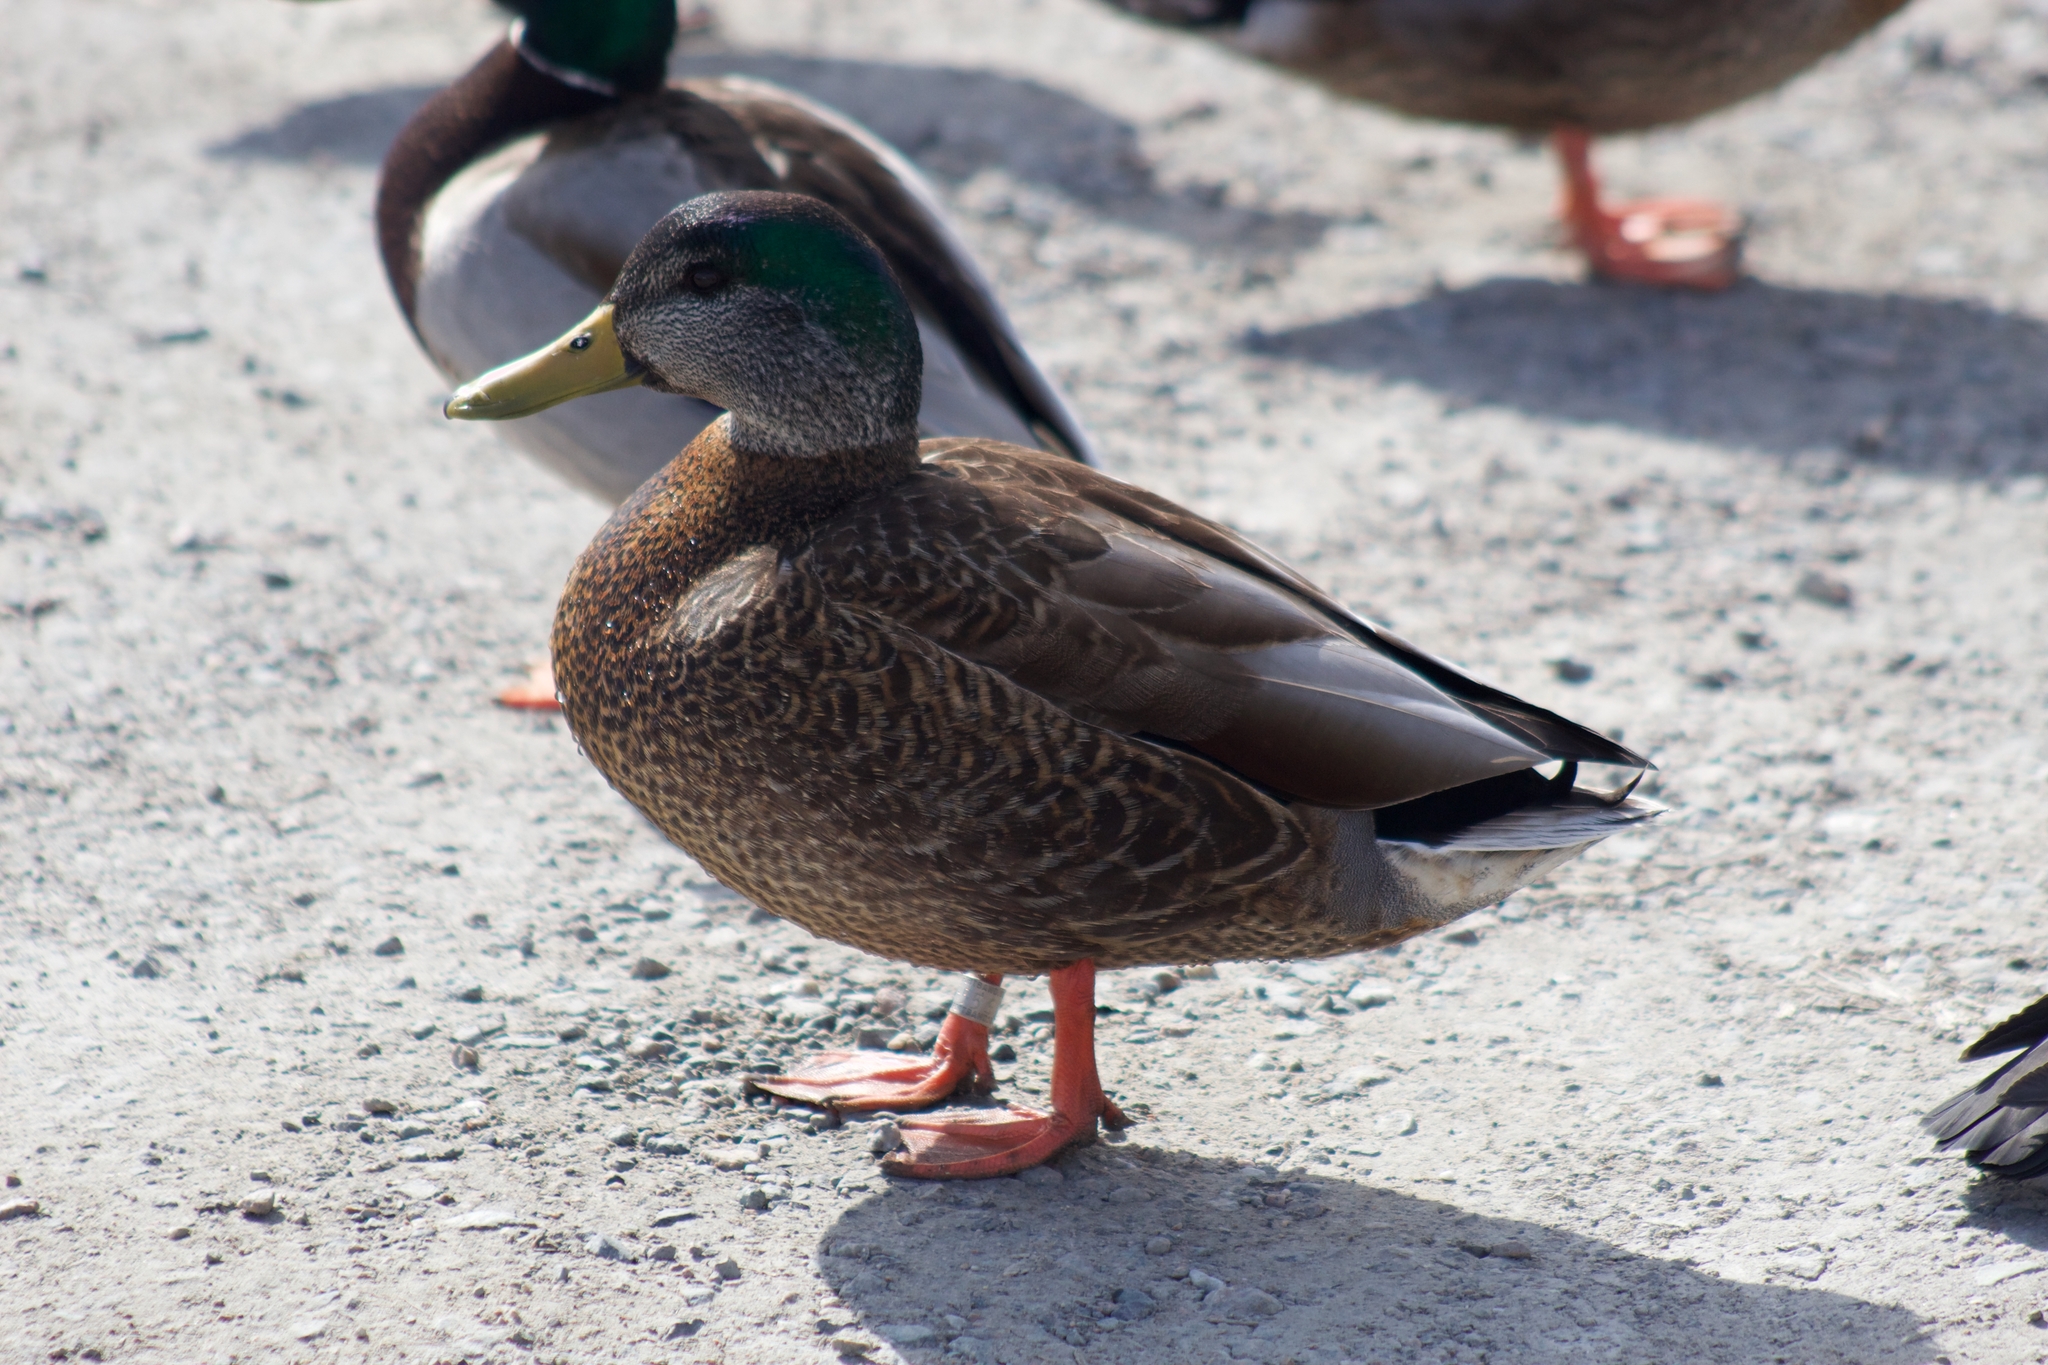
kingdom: Animalia
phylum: Chordata
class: Aves
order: Anseriformes
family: Anatidae
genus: Anas
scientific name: Anas
